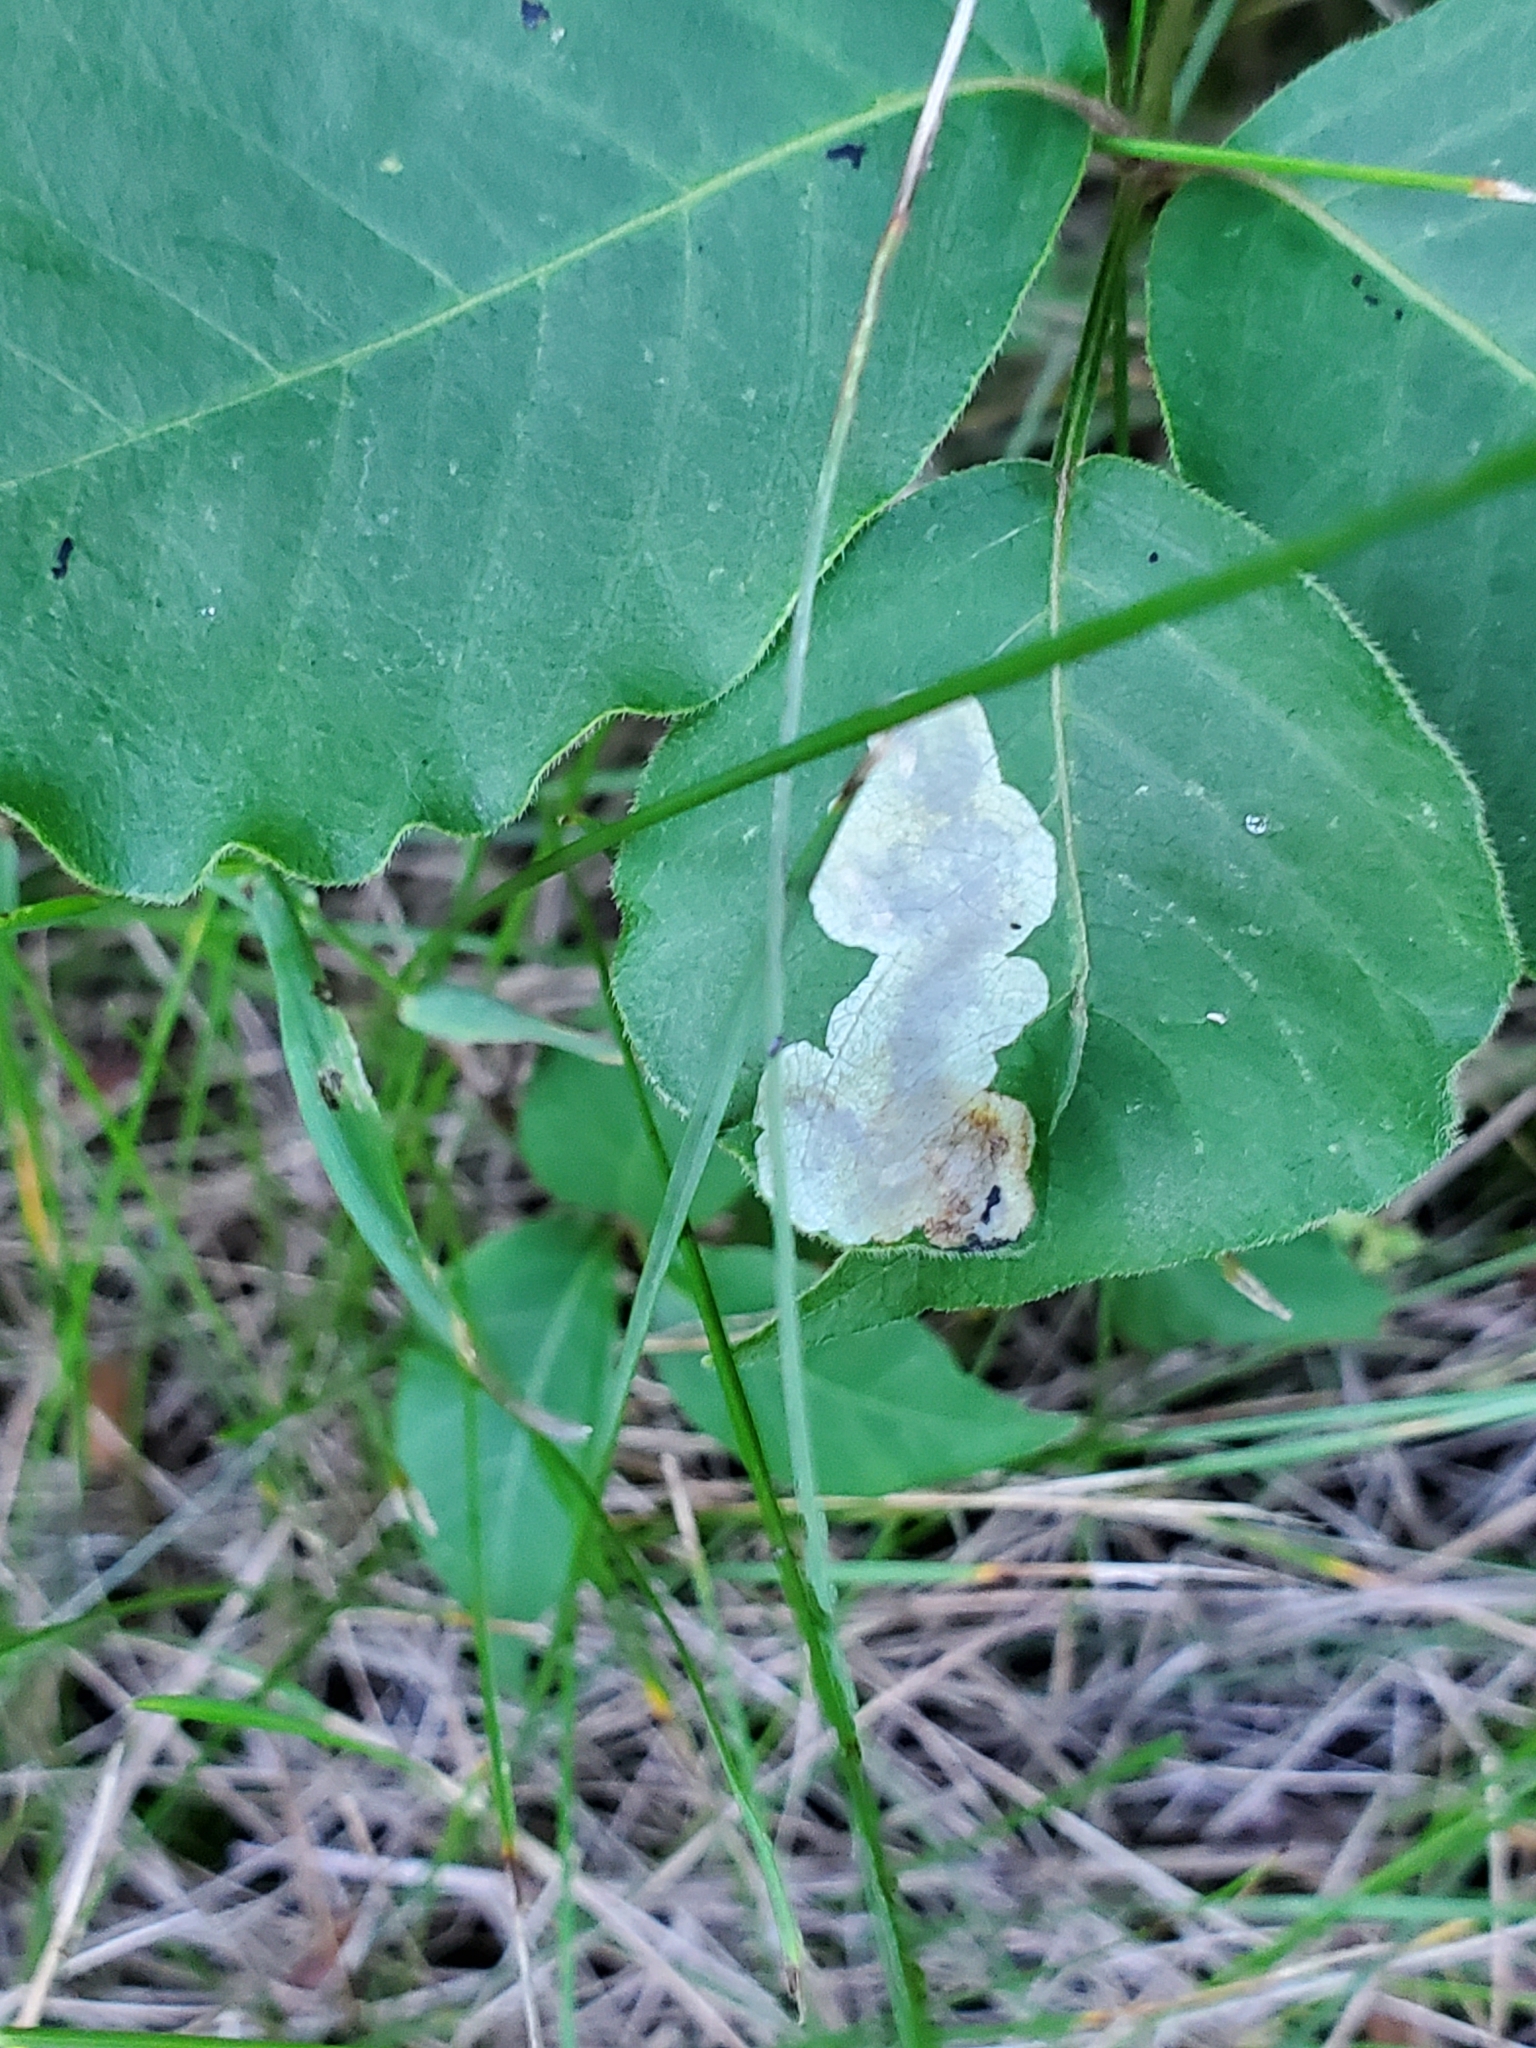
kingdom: Animalia
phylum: Arthropoda
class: Insecta
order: Lepidoptera
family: Gracillariidae
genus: Cameraria
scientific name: Cameraria guttifinitella
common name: Poison ivy leaf-miner moth
